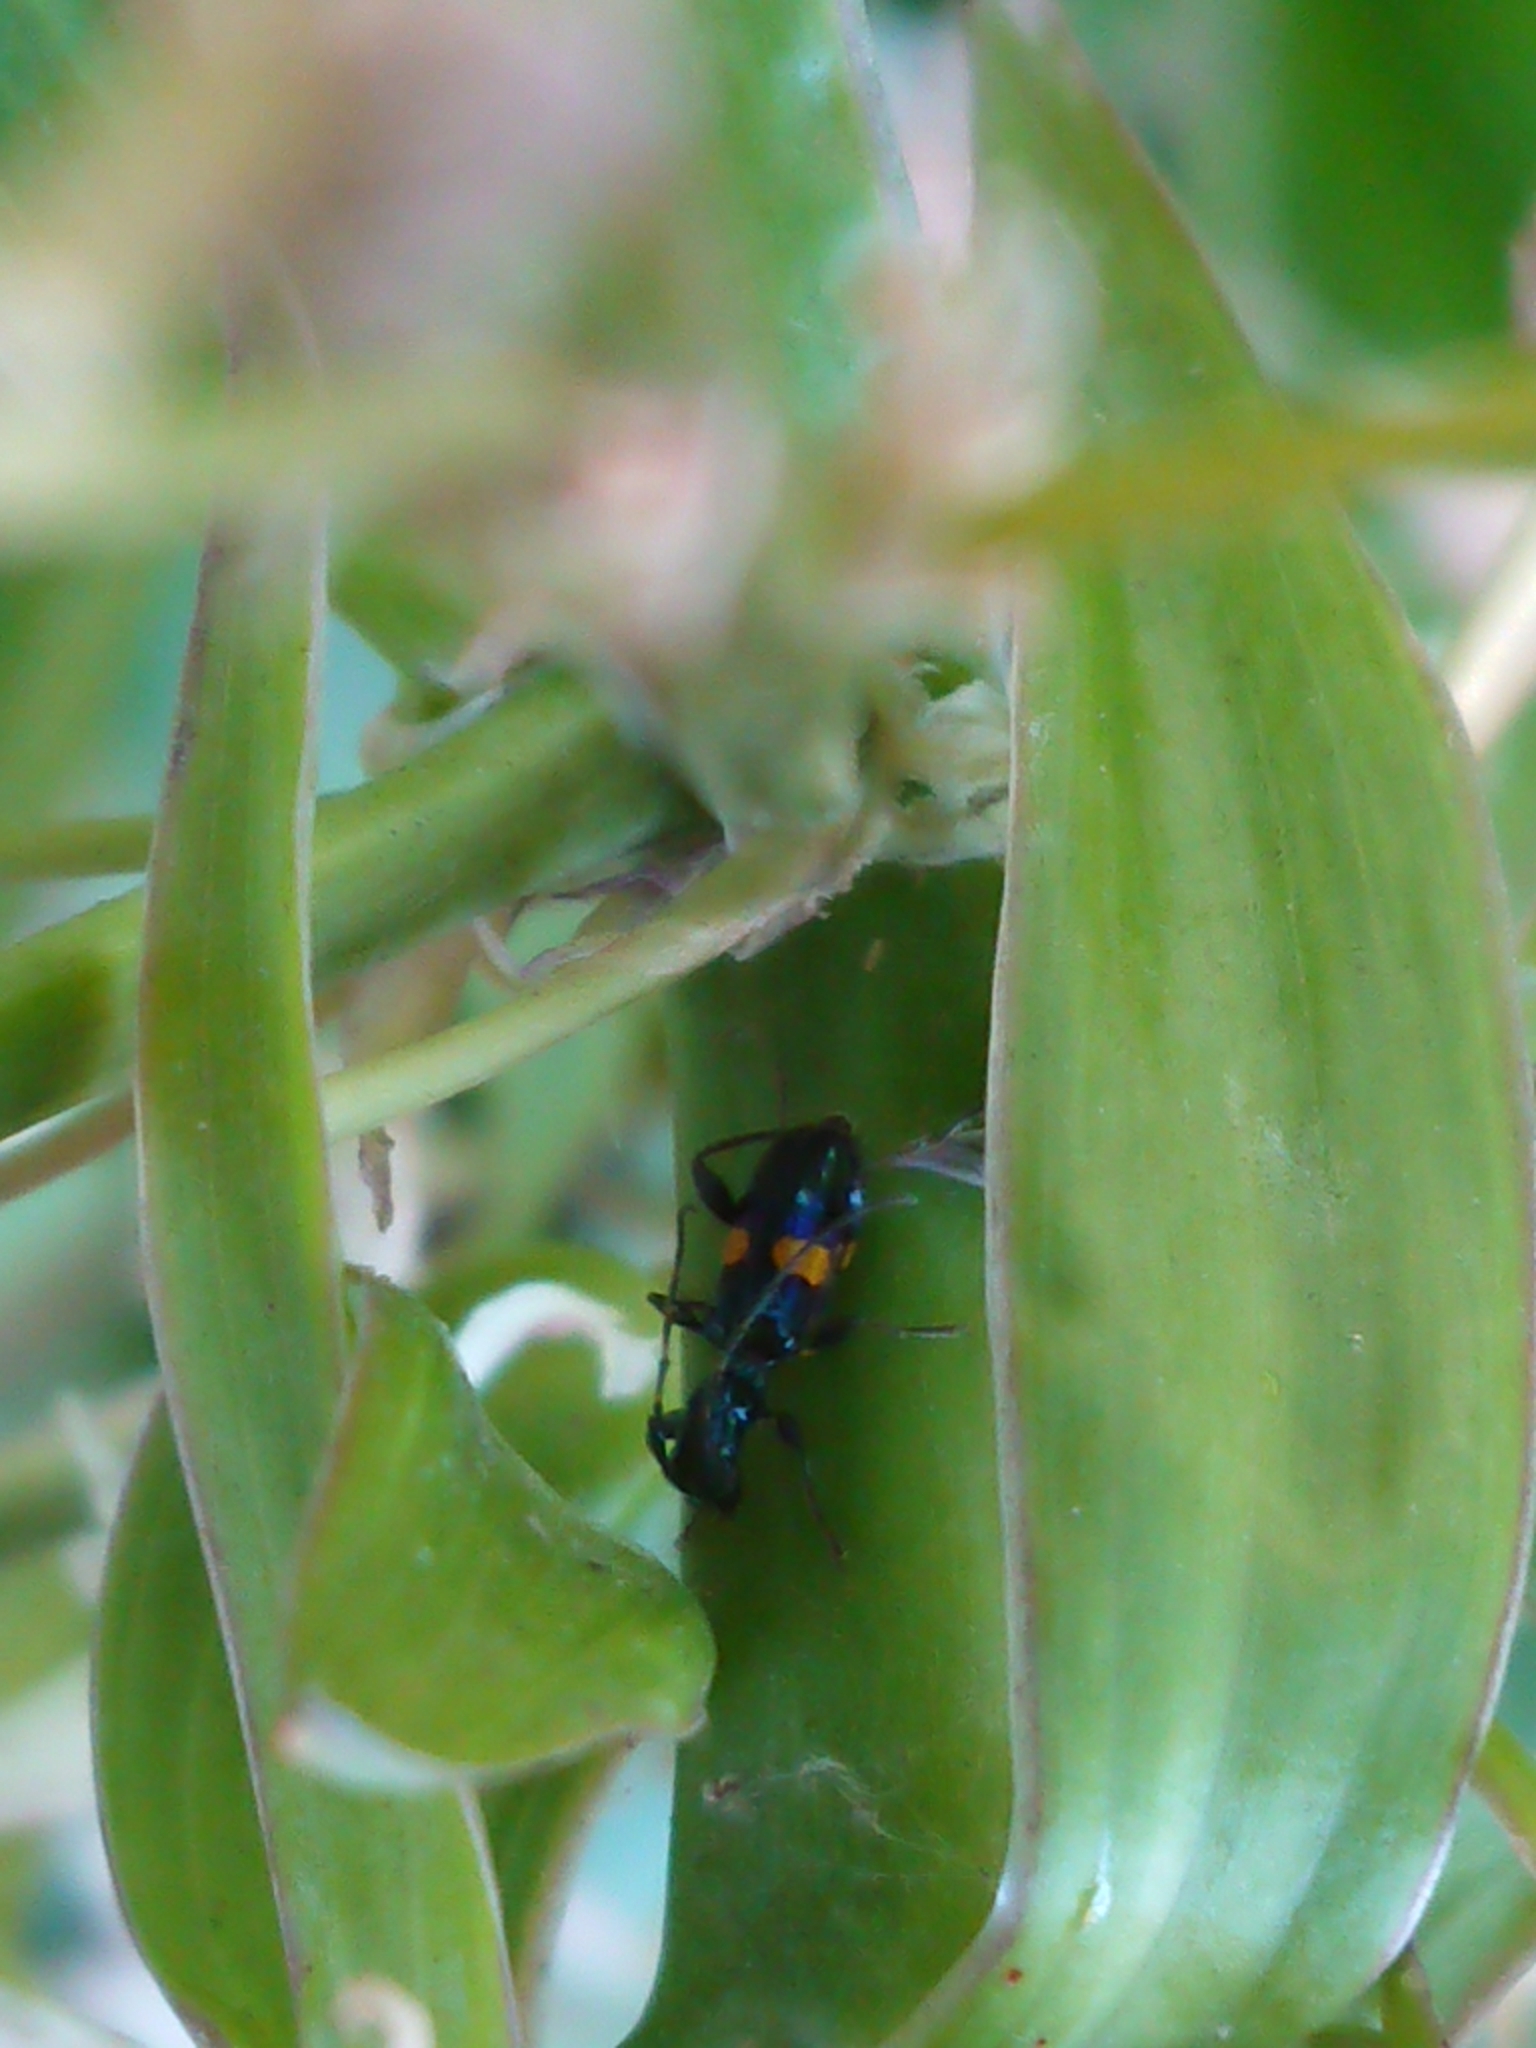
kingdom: Animalia
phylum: Arthropoda
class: Insecta
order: Coleoptera
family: Cerambycidae
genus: Zorion
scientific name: Zorion guttigerum
